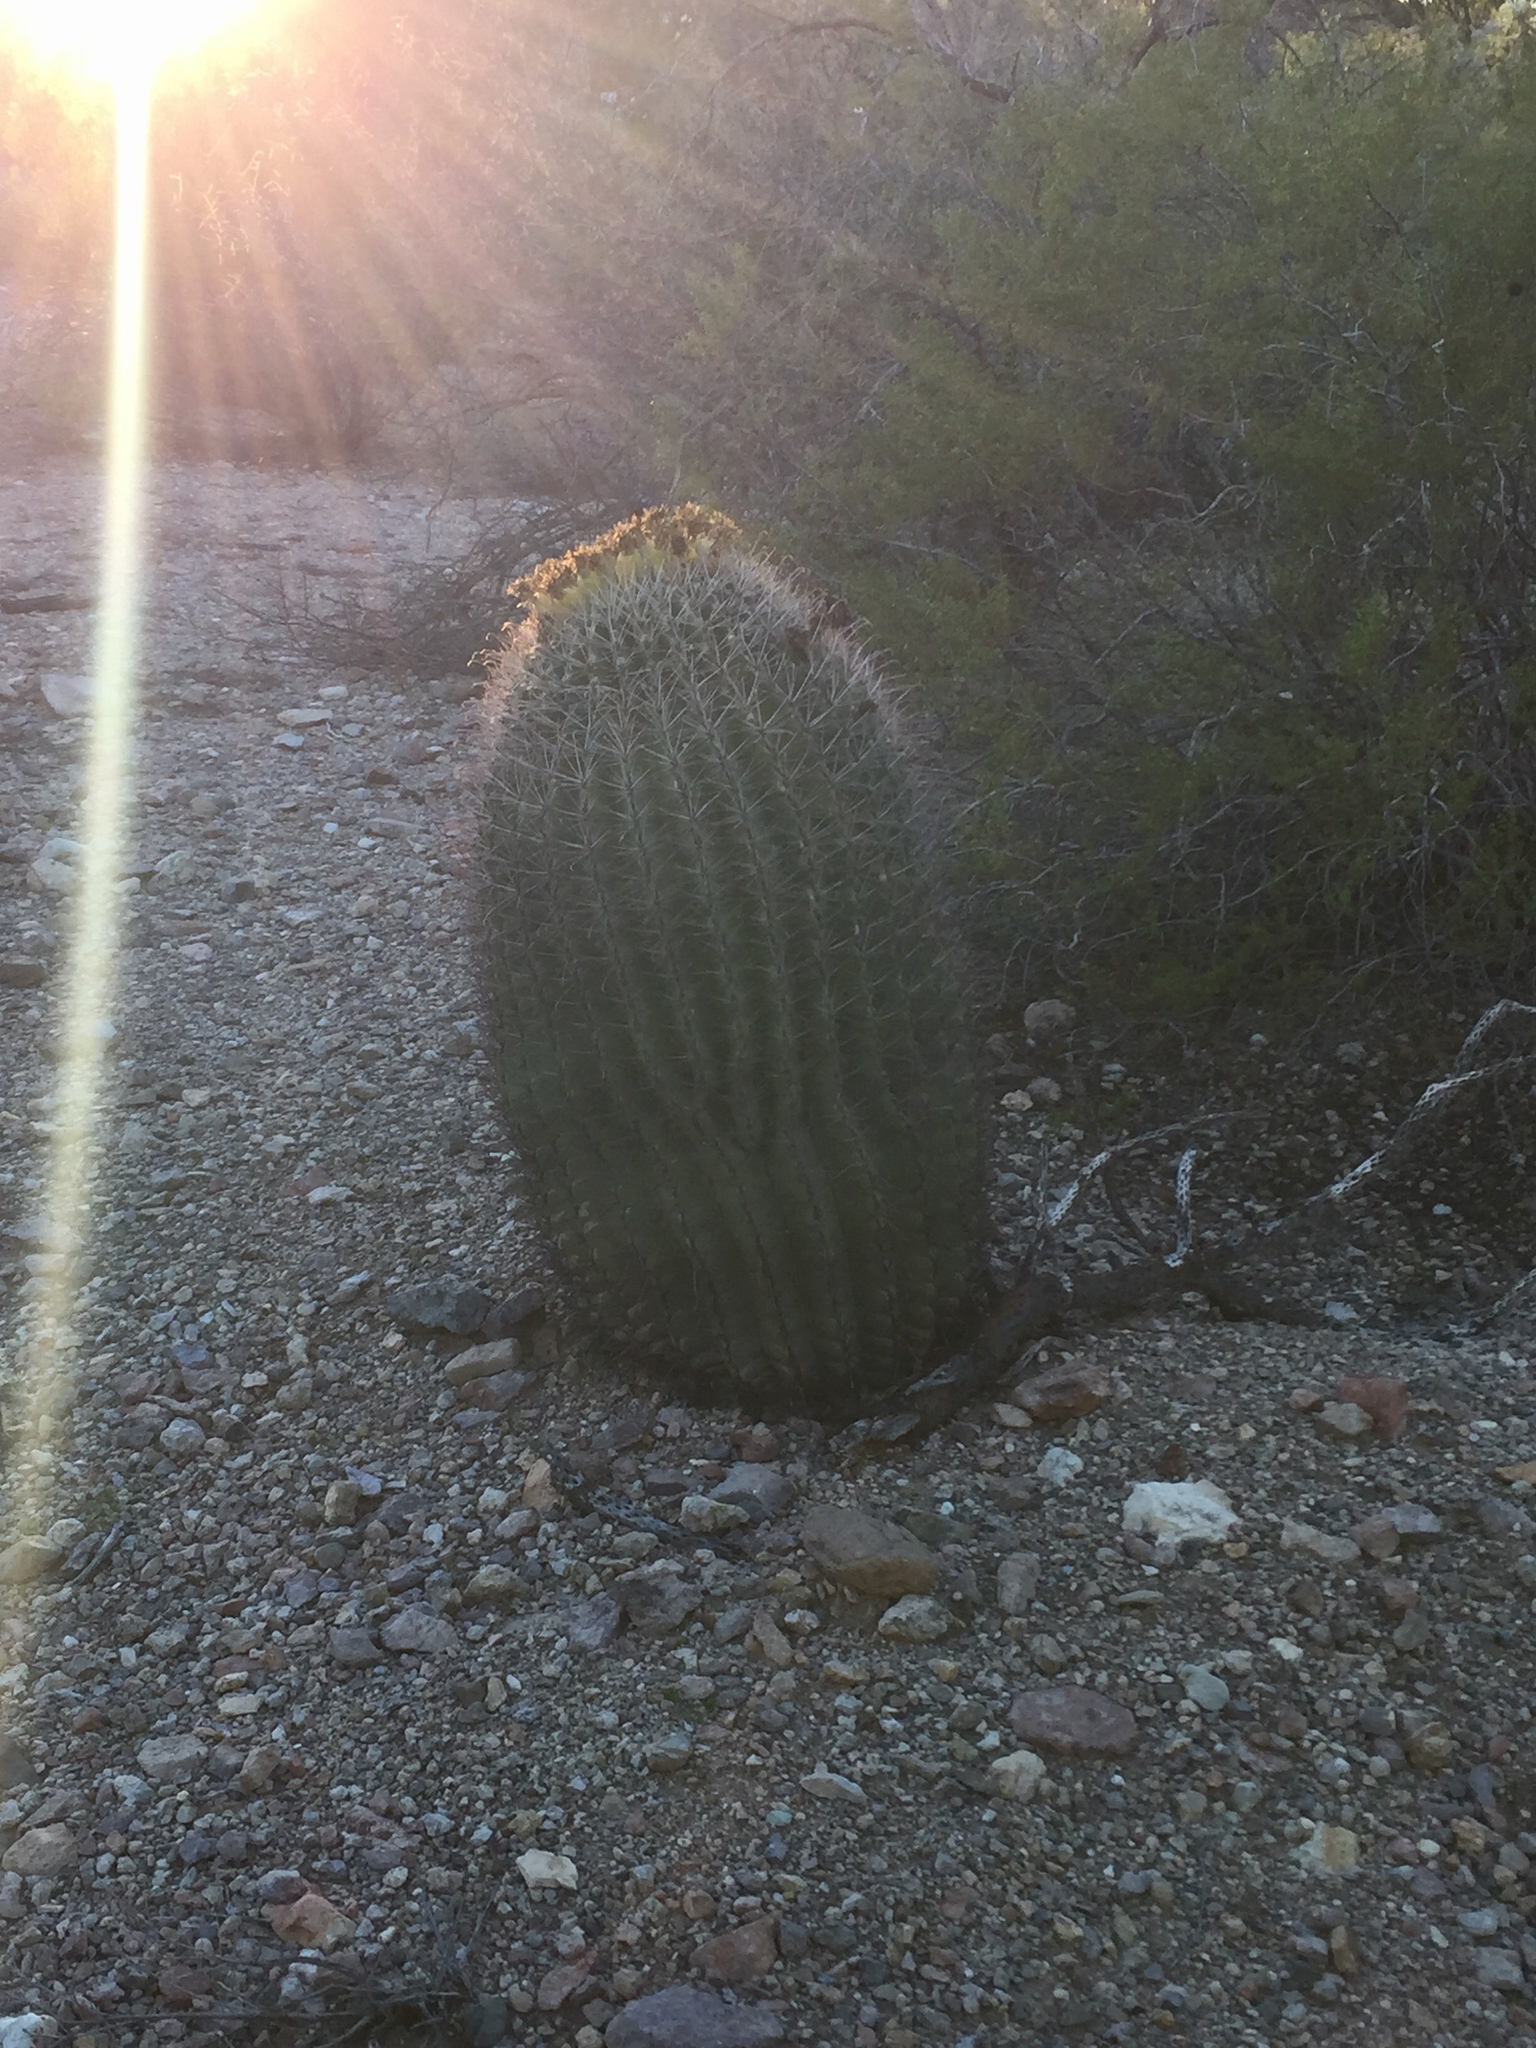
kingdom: Plantae
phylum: Tracheophyta
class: Magnoliopsida
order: Caryophyllales
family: Cactaceae
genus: Ferocactus
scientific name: Ferocactus wislizeni
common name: Candy barrel cactus
